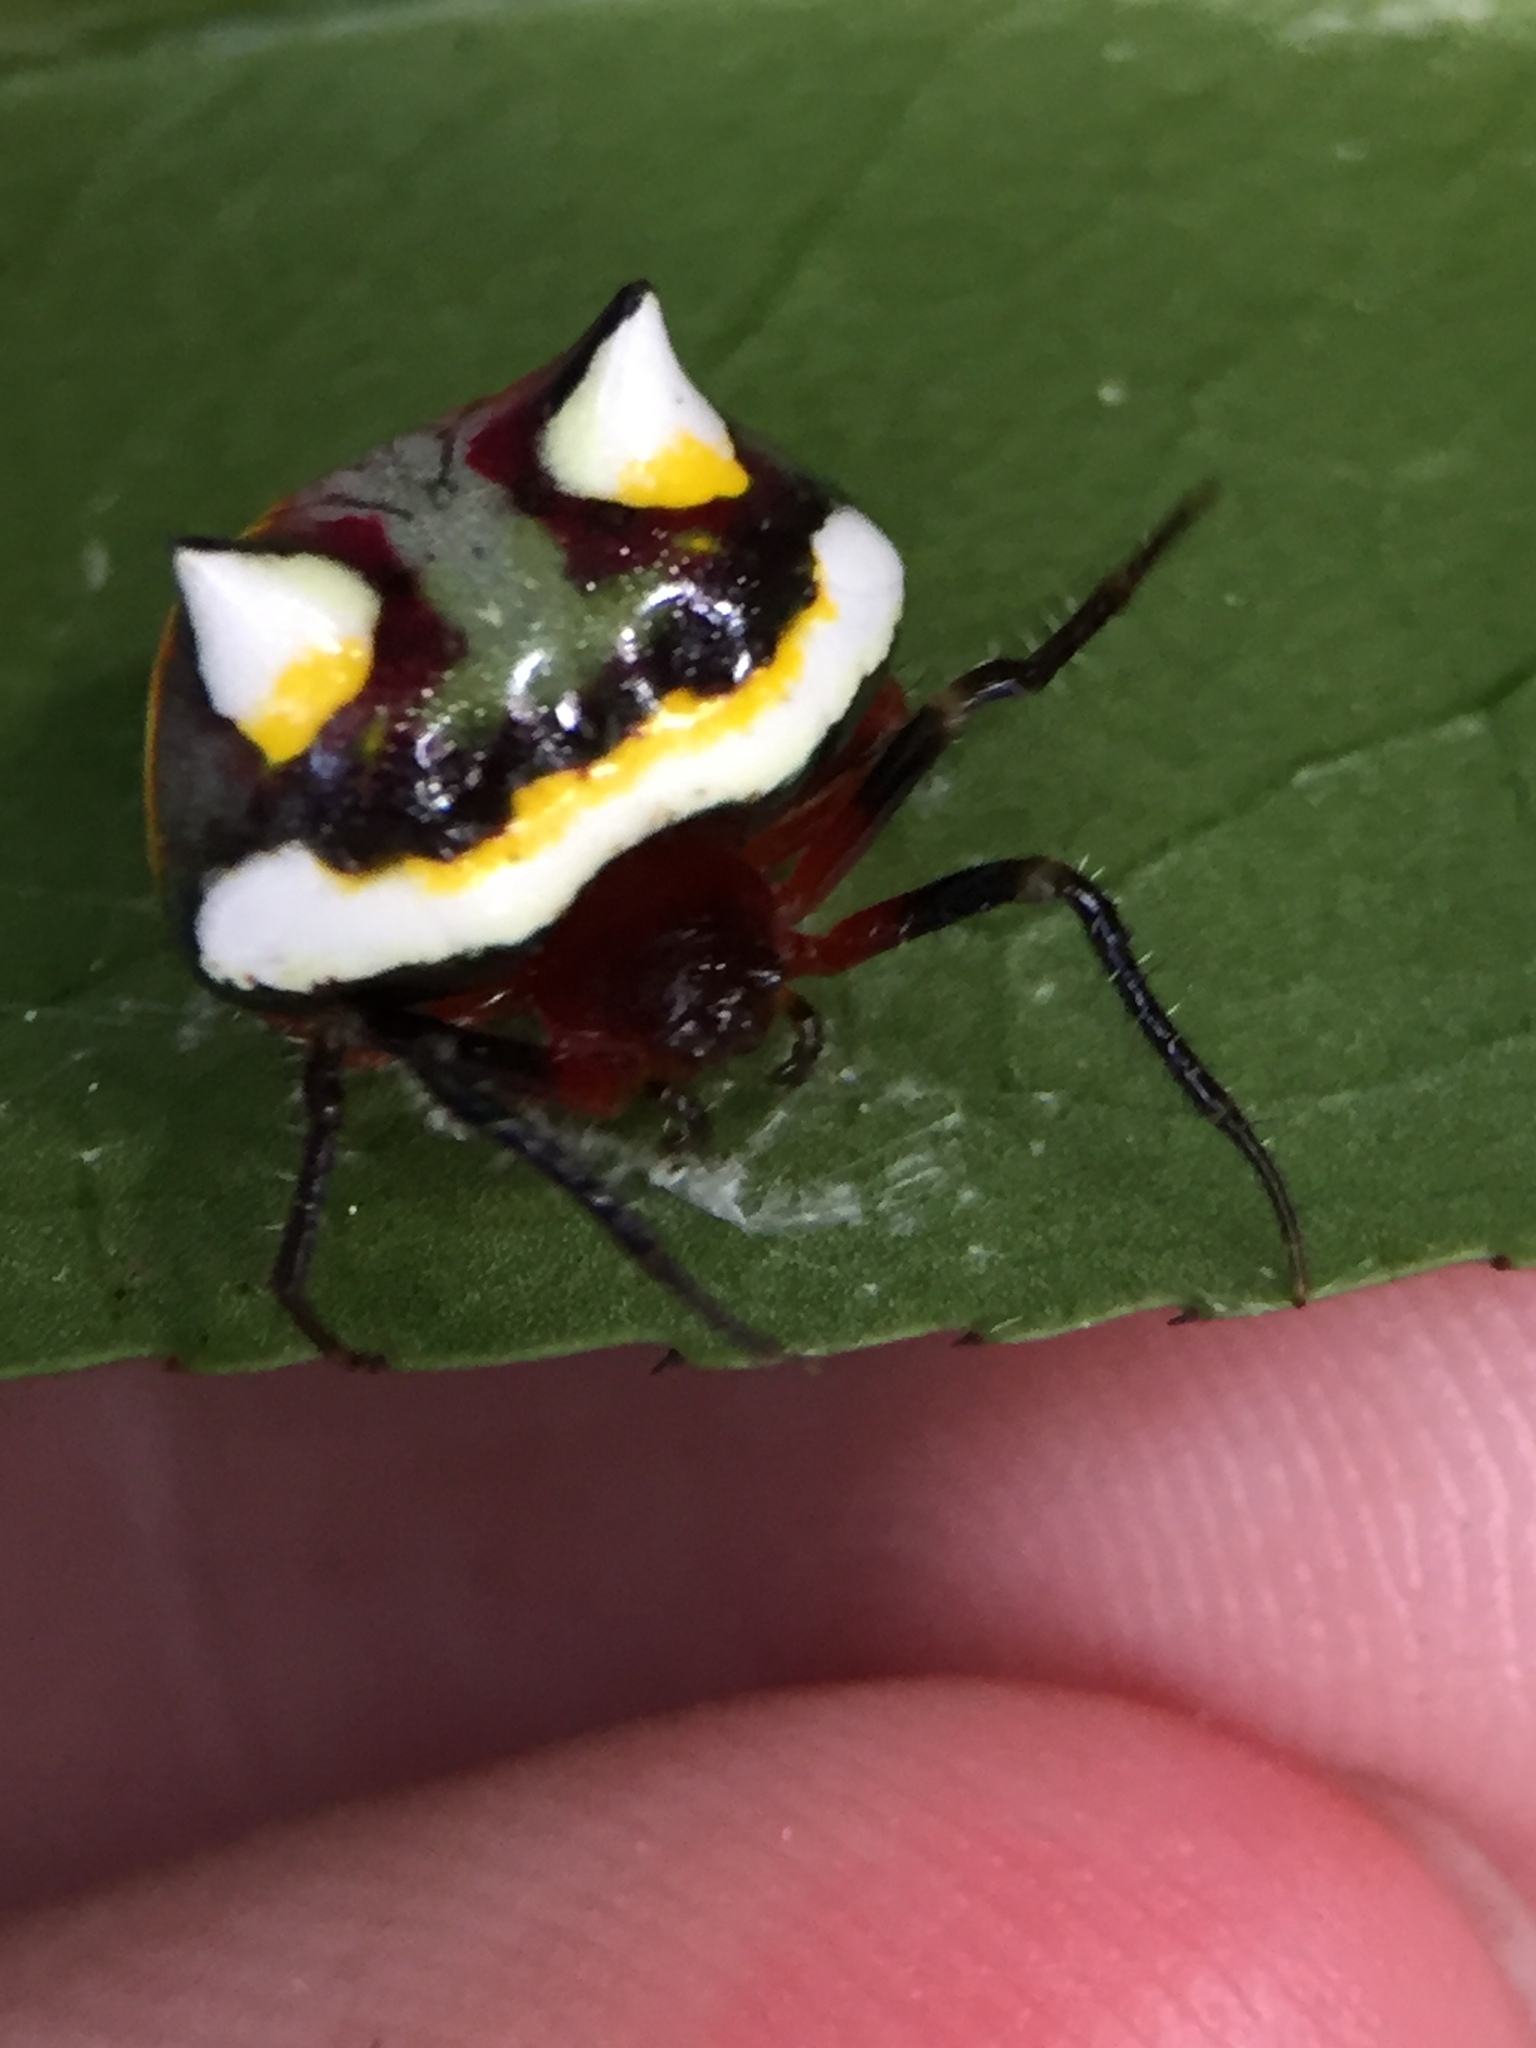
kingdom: Animalia
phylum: Arthropoda
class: Arachnida
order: Araneae
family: Araneidae
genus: Poecilopachys
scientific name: Poecilopachys australasia
